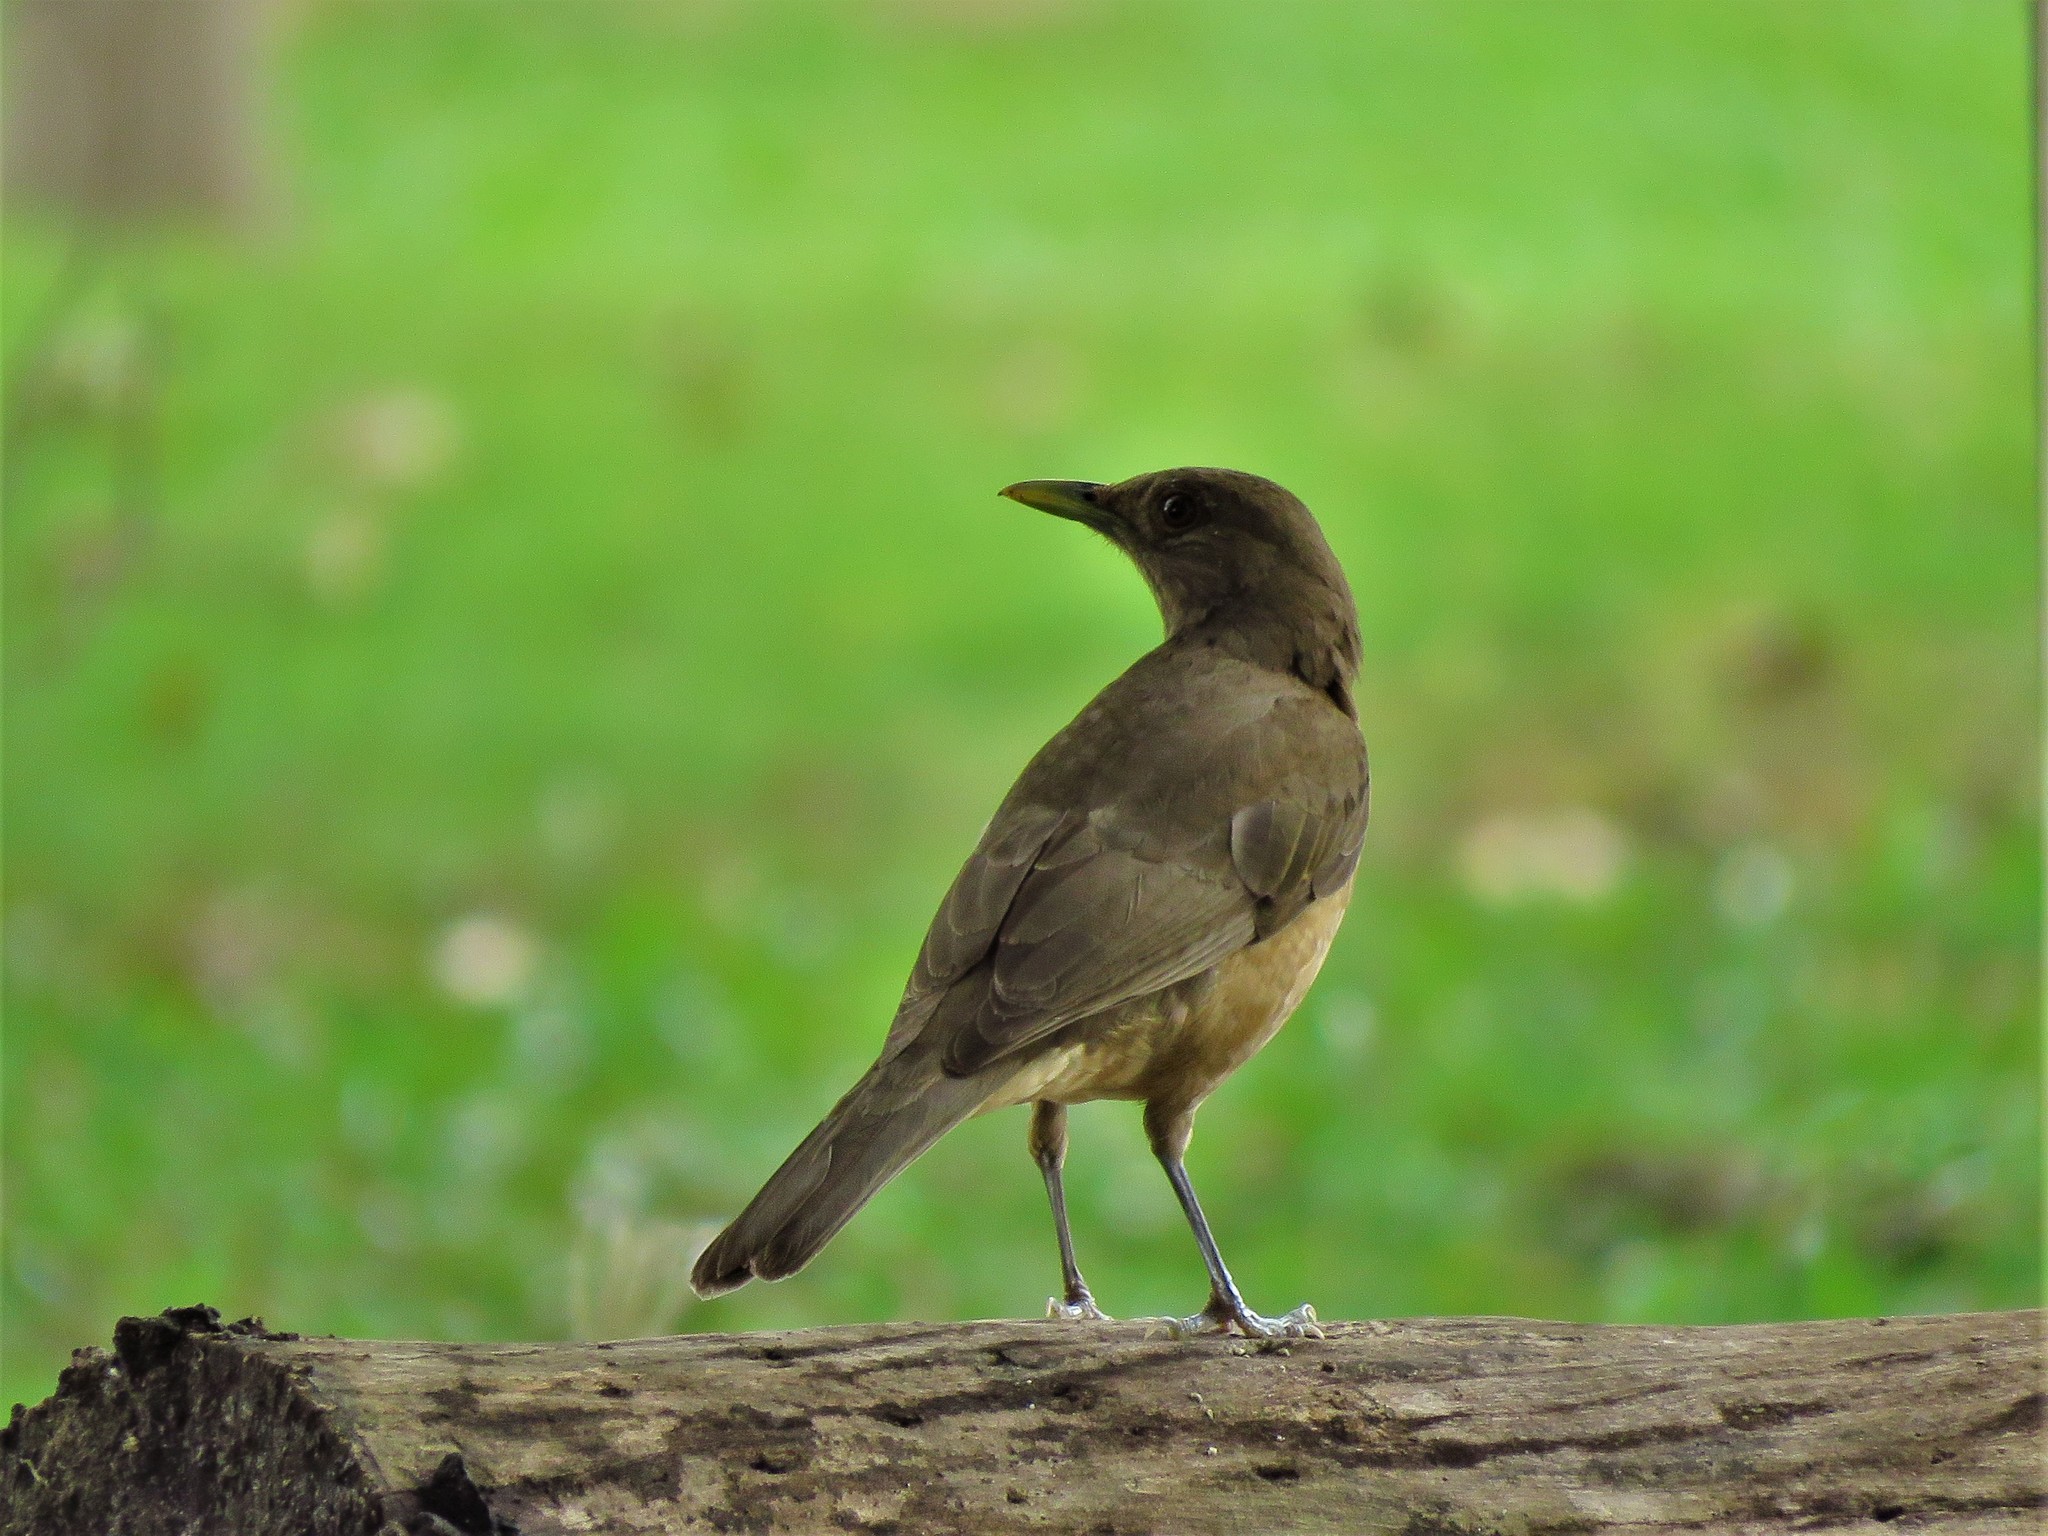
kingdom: Animalia
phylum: Chordata
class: Aves
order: Passeriformes
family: Turdidae
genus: Turdus
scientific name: Turdus grayi
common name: Clay-colored thrush
